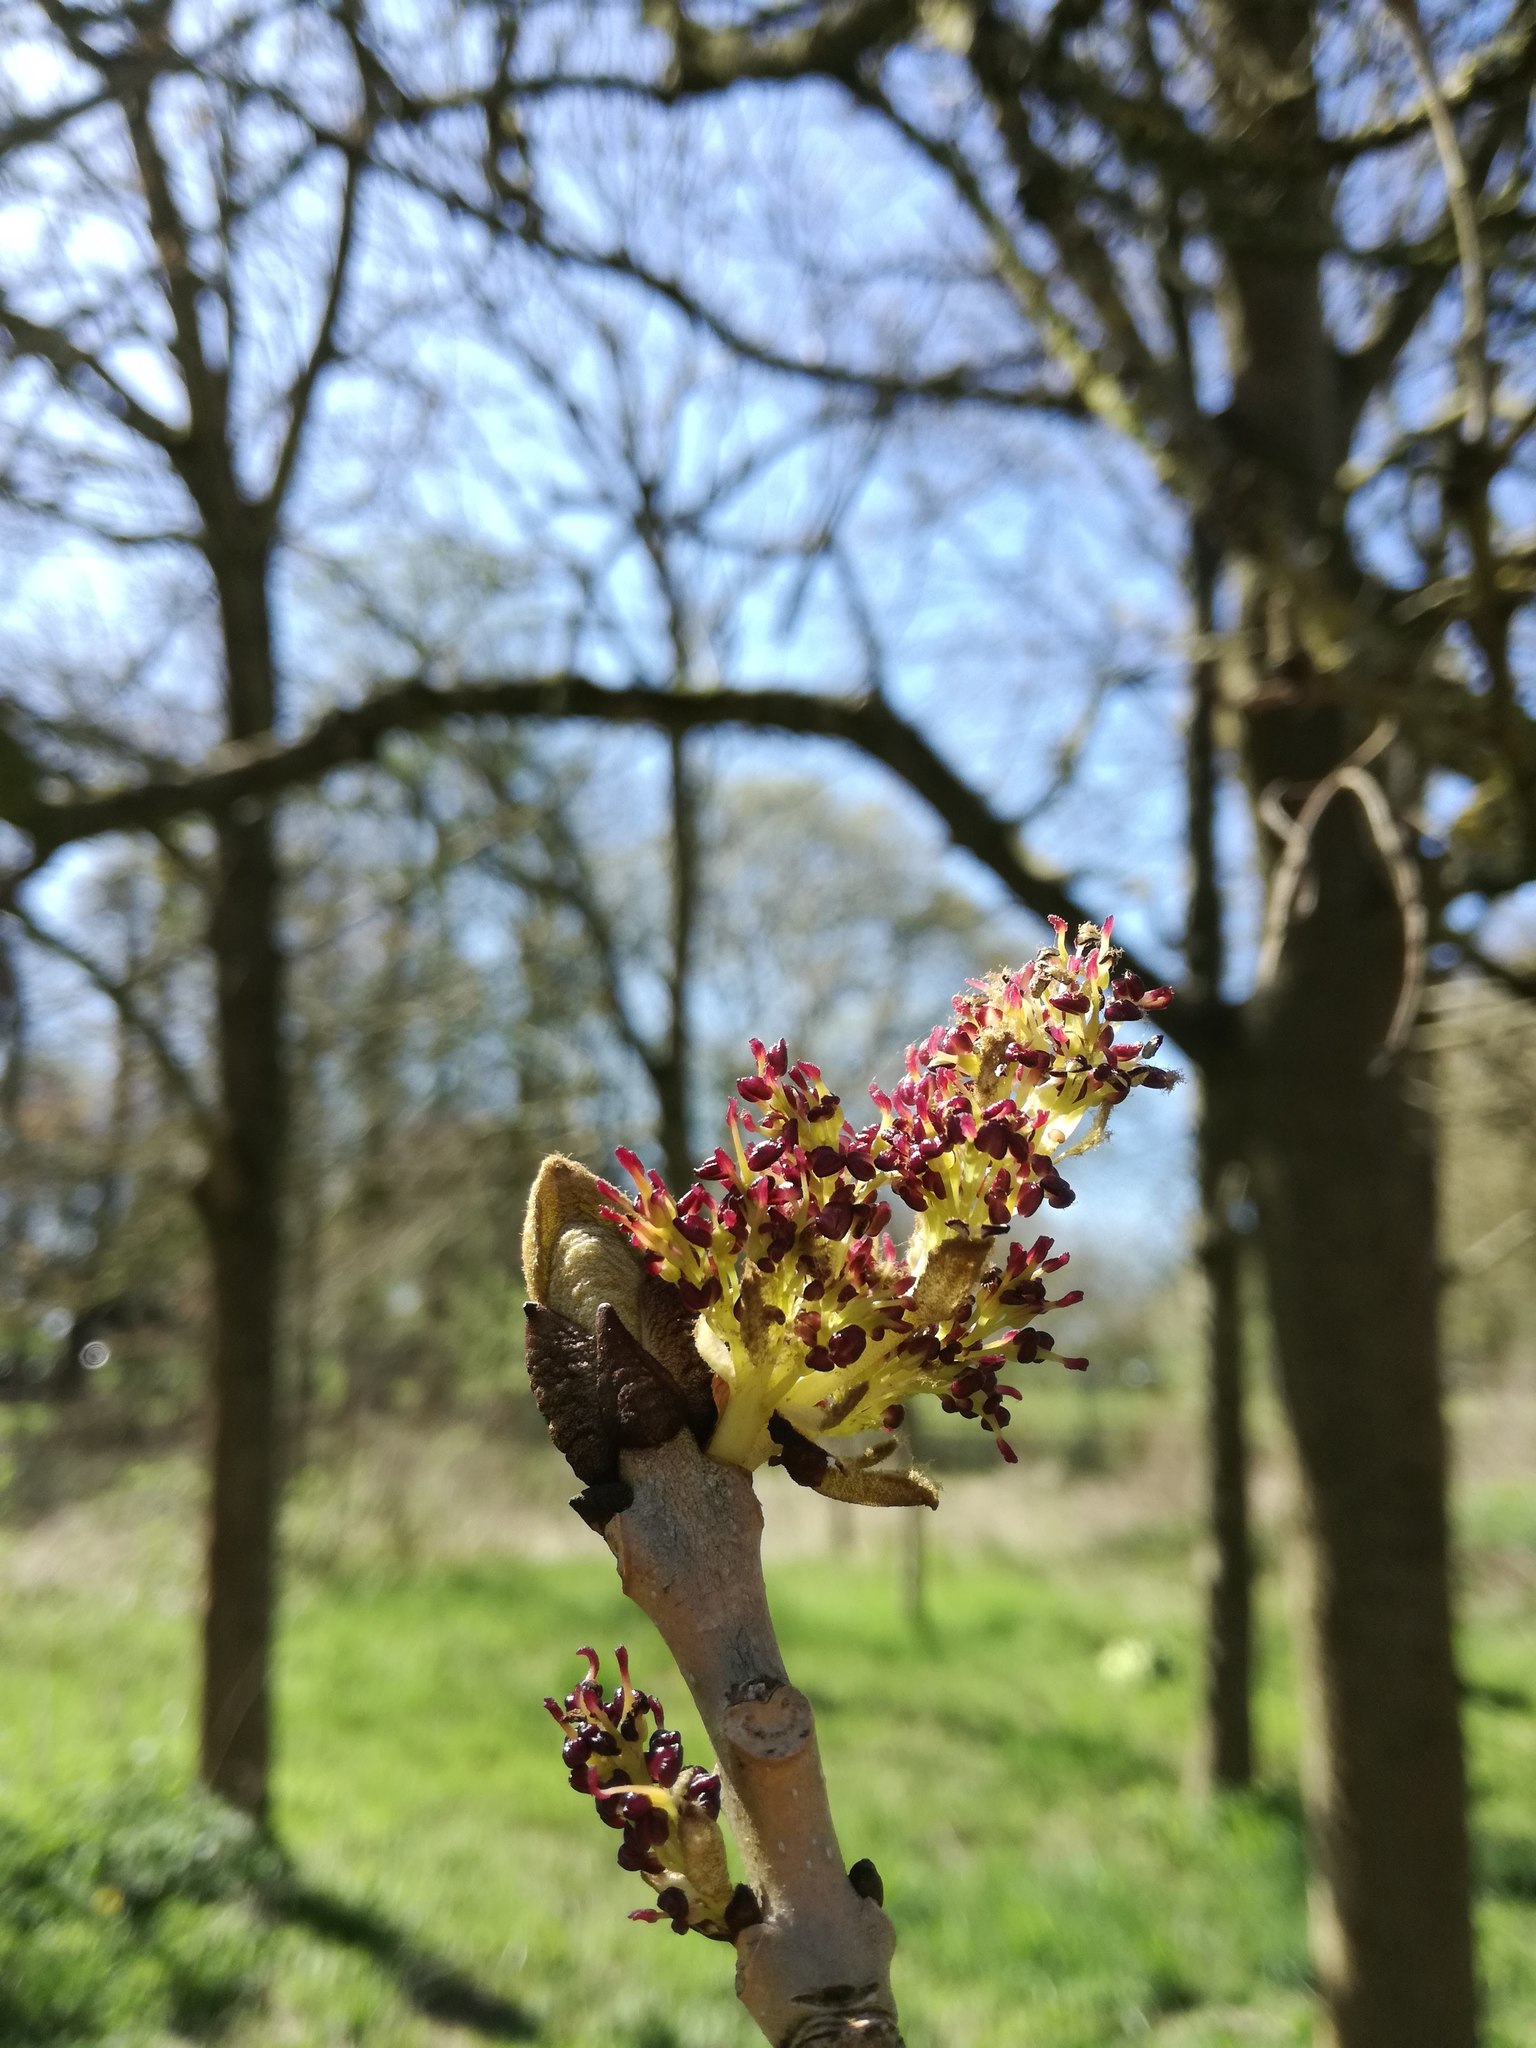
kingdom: Plantae
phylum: Tracheophyta
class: Magnoliopsida
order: Lamiales
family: Oleaceae
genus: Fraxinus
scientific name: Fraxinus excelsior
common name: European ash
